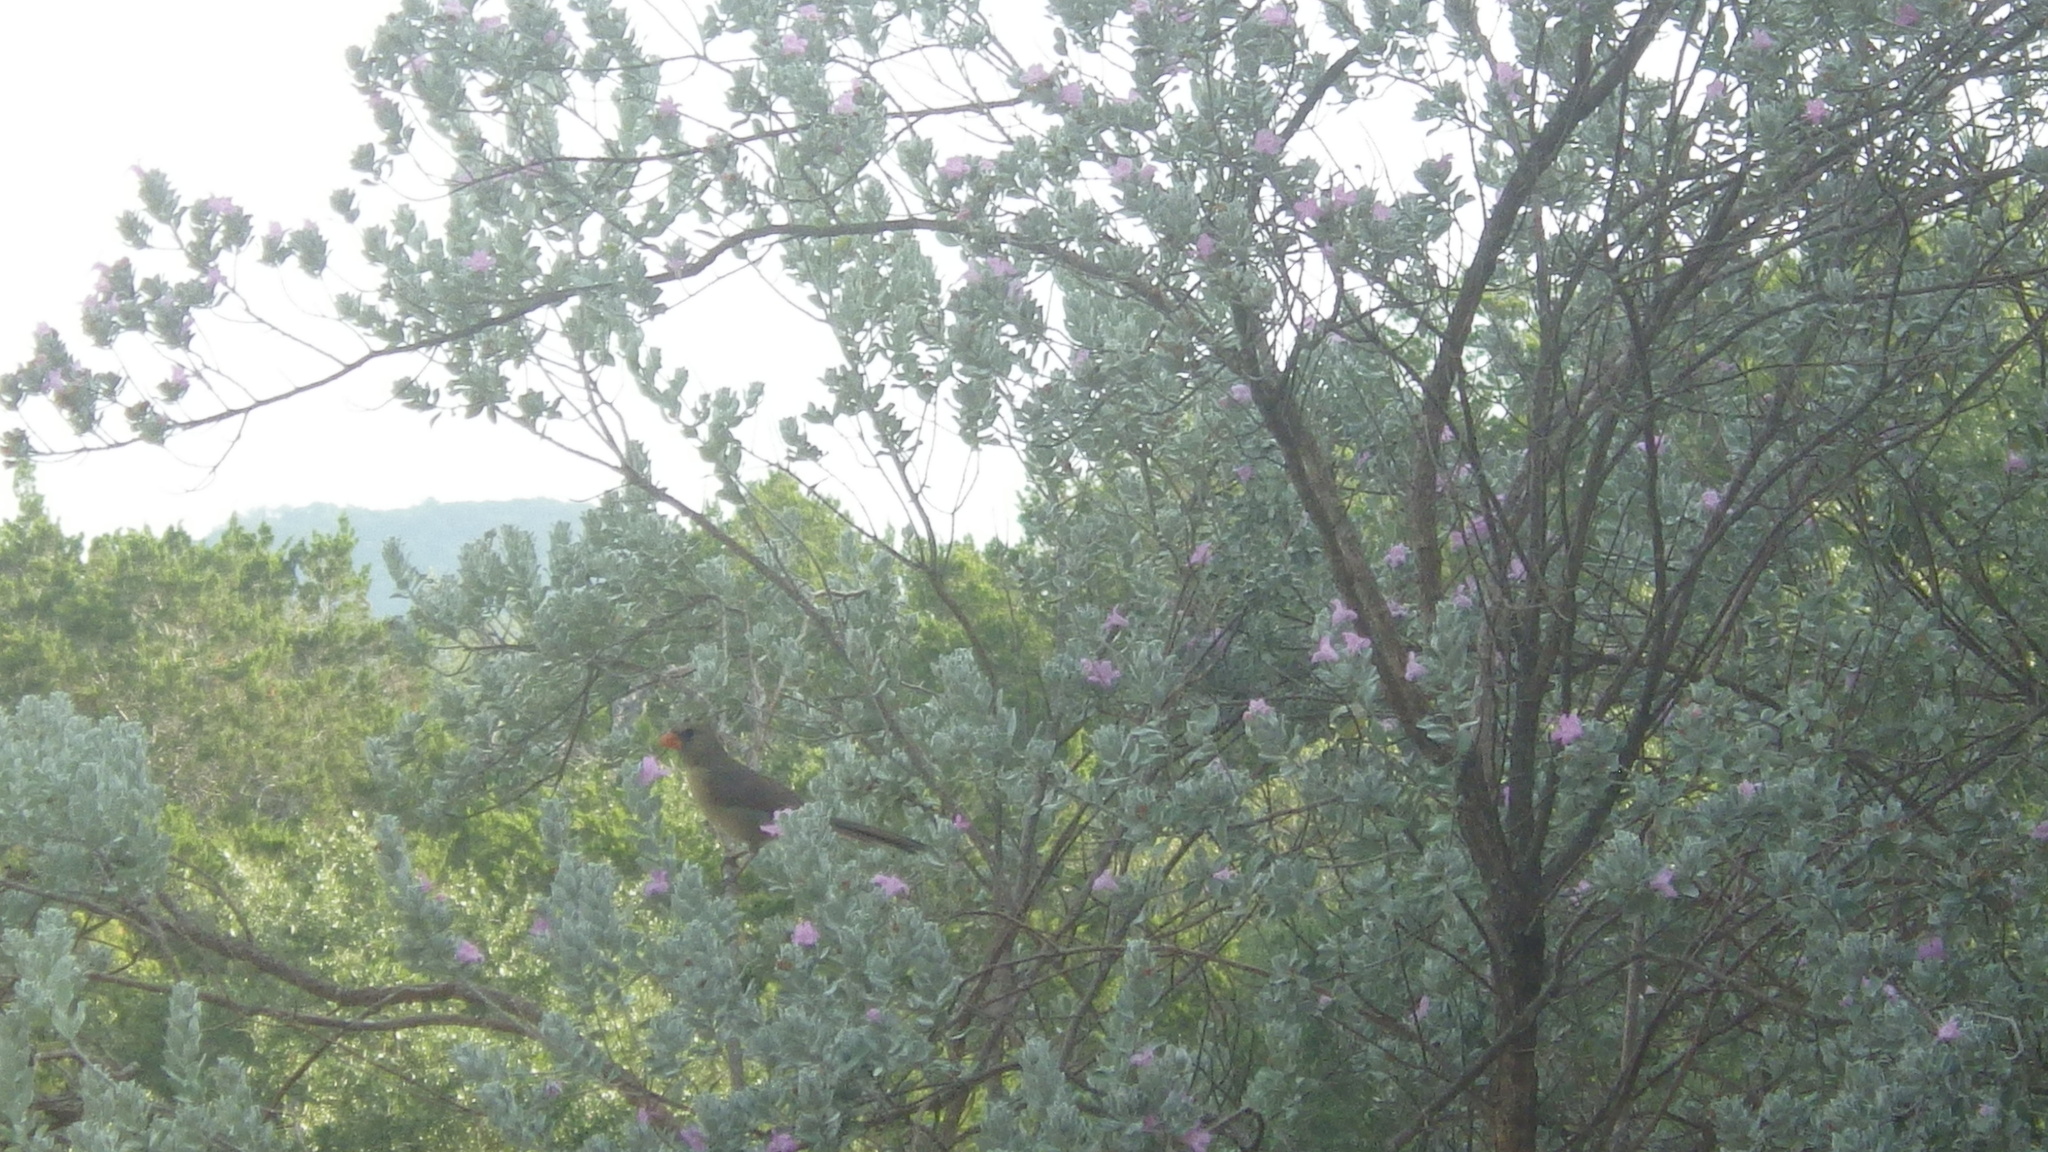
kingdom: Animalia
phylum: Chordata
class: Aves
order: Passeriformes
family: Cardinalidae
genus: Cardinalis
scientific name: Cardinalis cardinalis
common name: Northern cardinal
